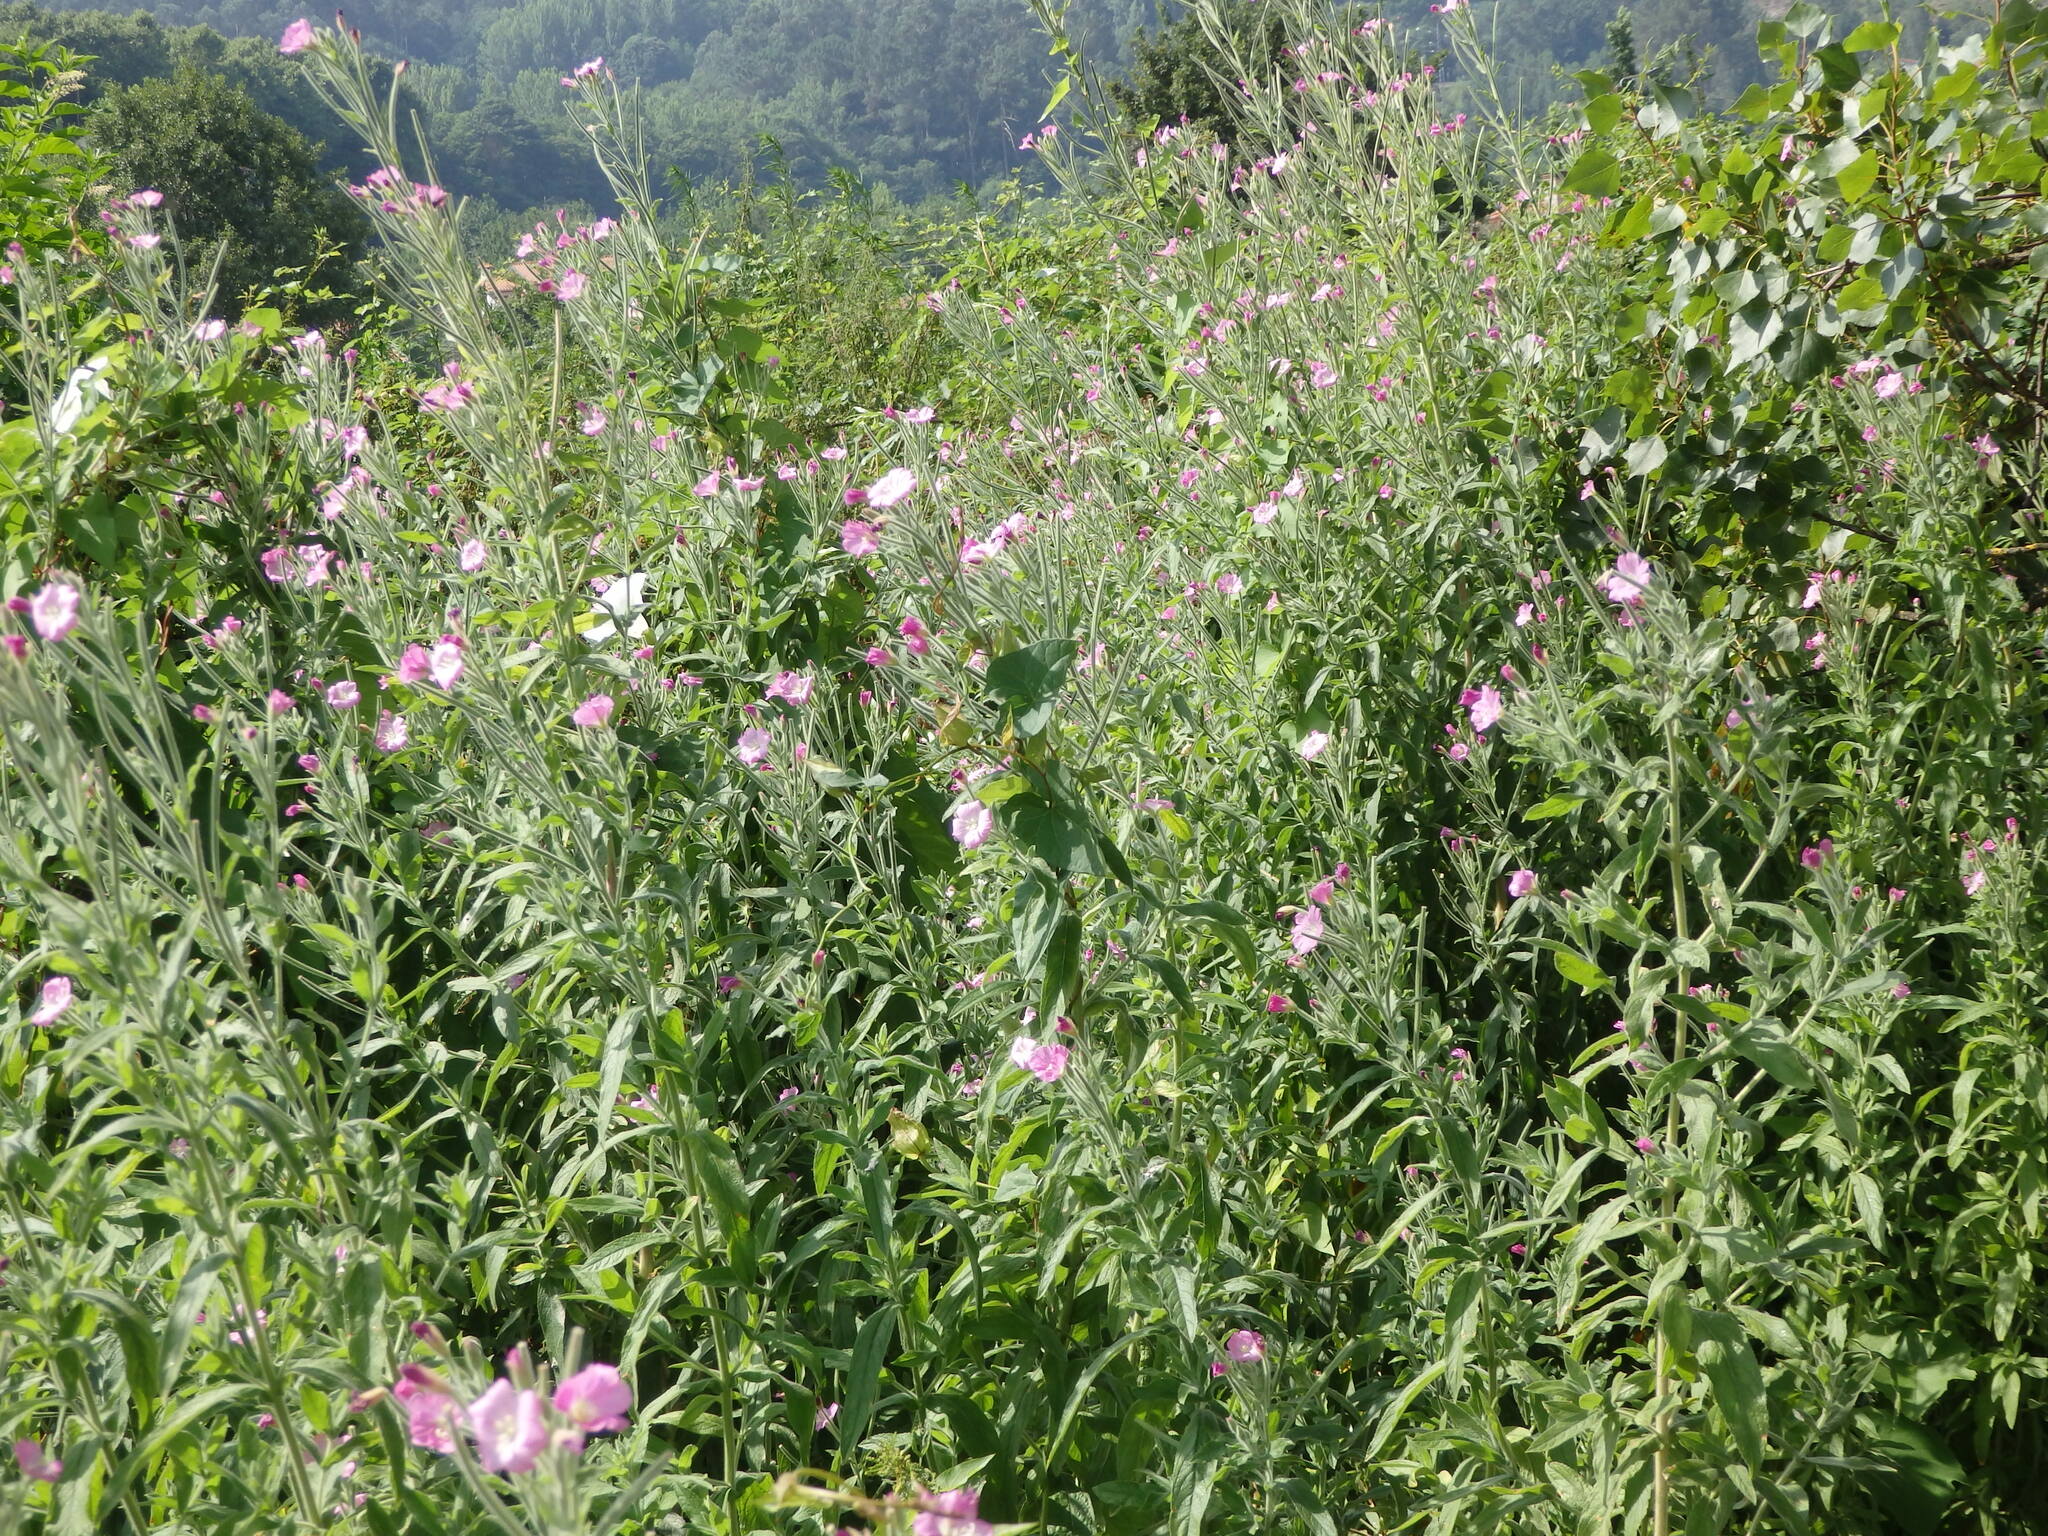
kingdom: Plantae
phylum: Tracheophyta
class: Magnoliopsida
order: Myrtales
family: Onagraceae
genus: Epilobium
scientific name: Epilobium hirsutum
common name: Great willowherb
